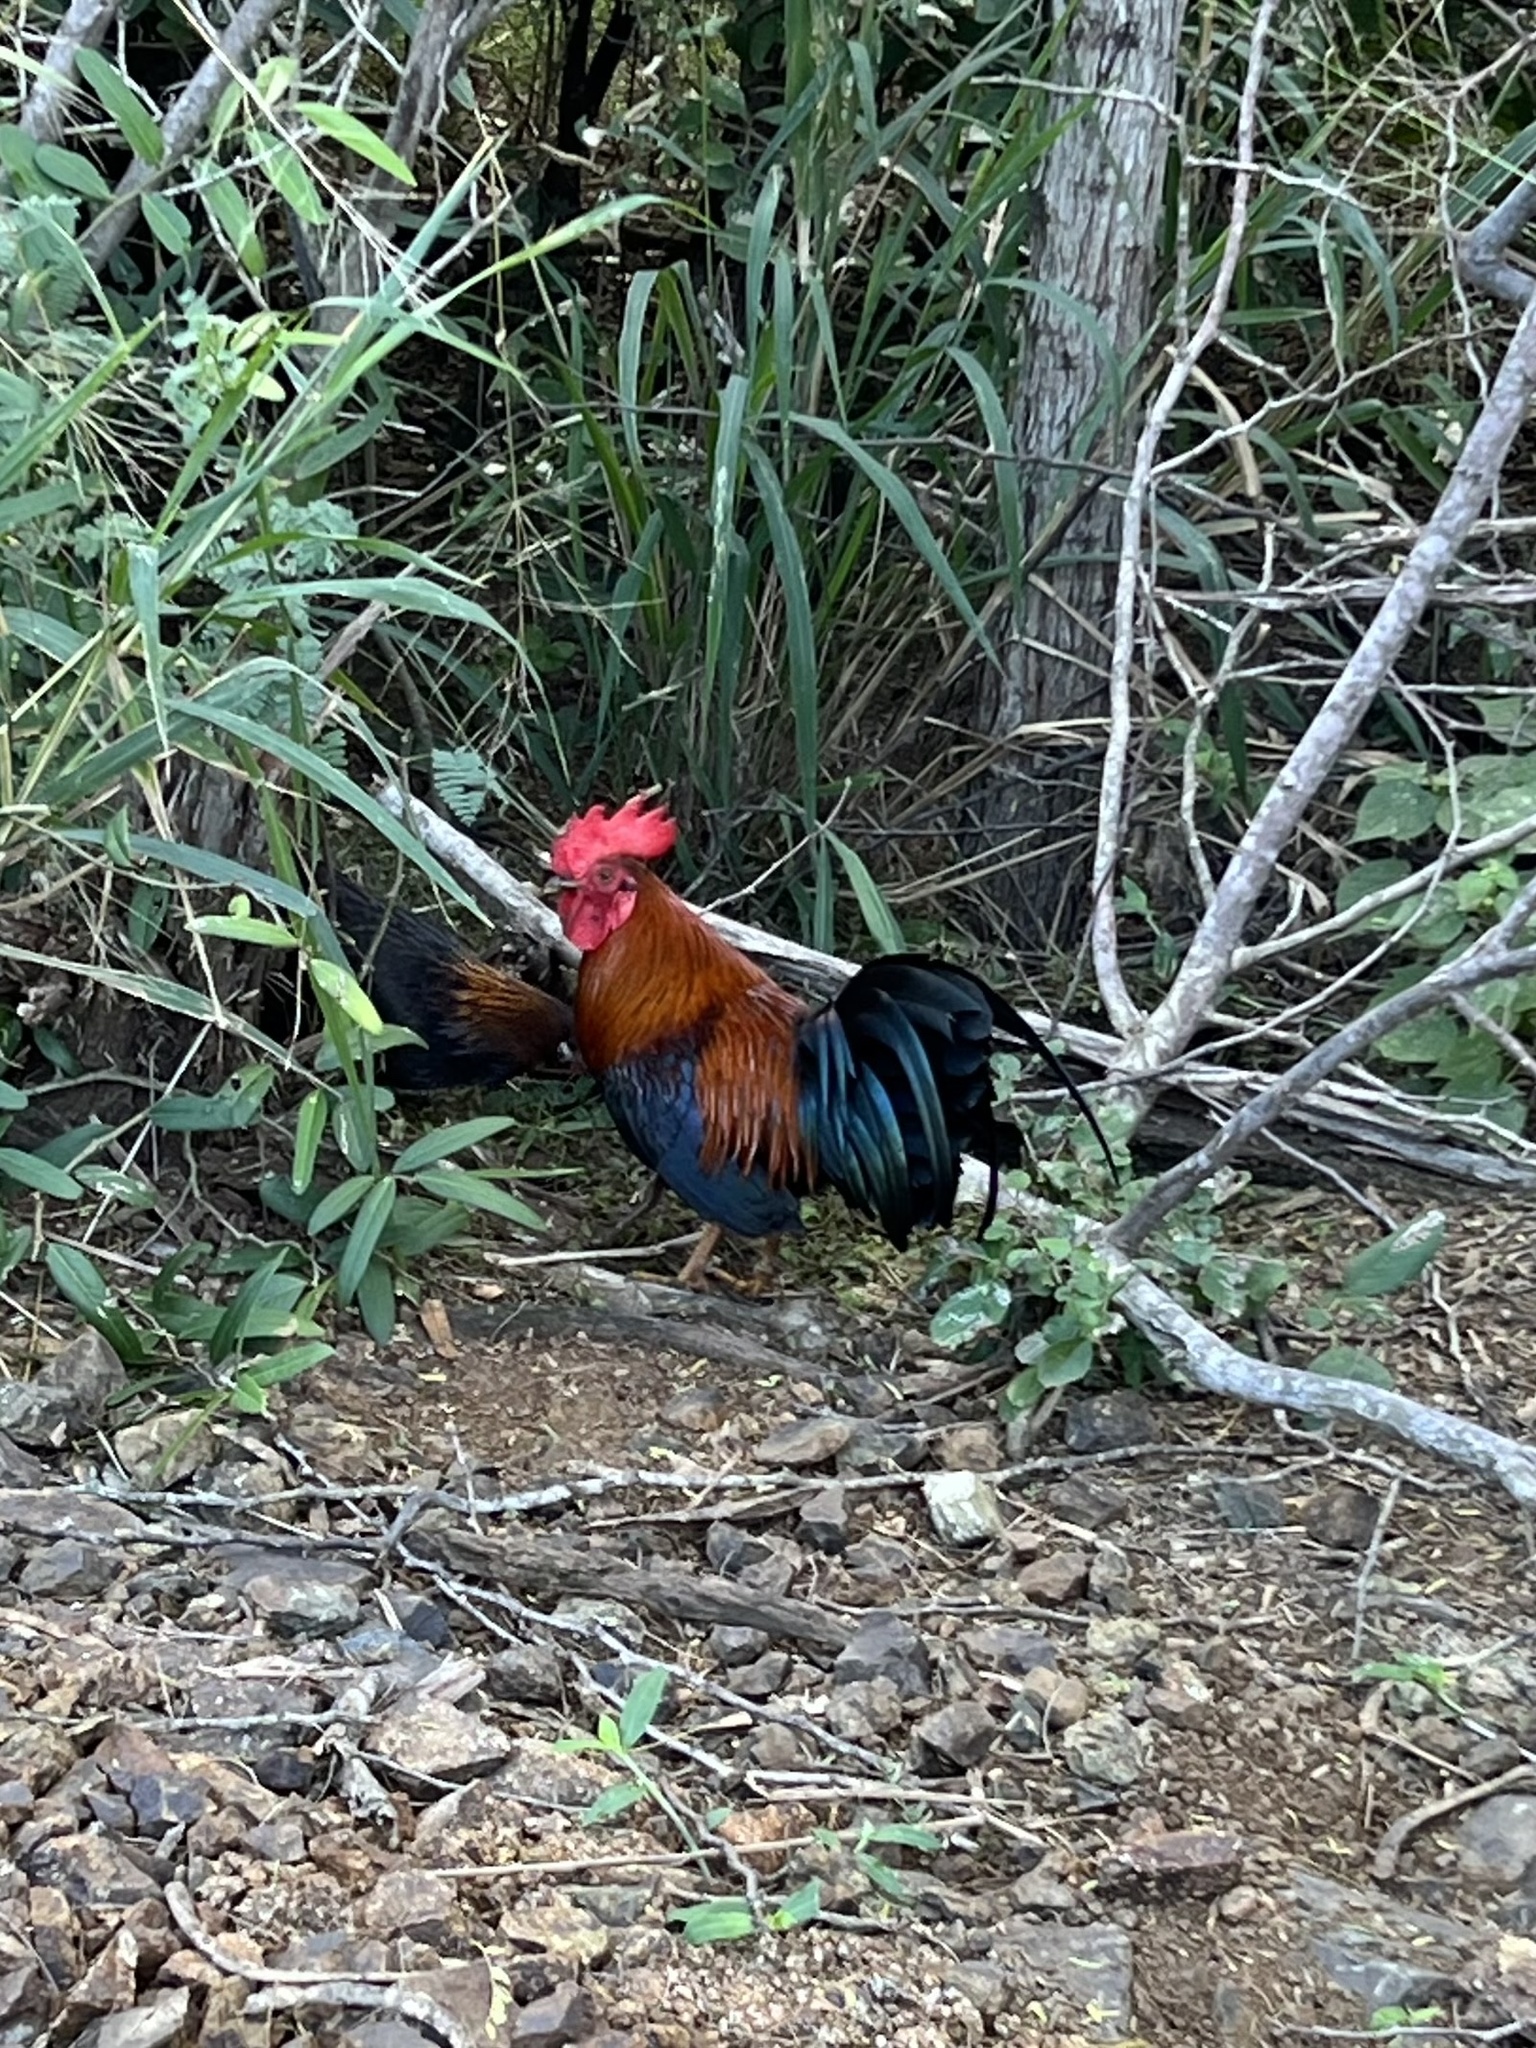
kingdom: Animalia
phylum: Chordata
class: Aves
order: Galliformes
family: Phasianidae
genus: Gallus
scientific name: Gallus gallus
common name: Red junglefowl
